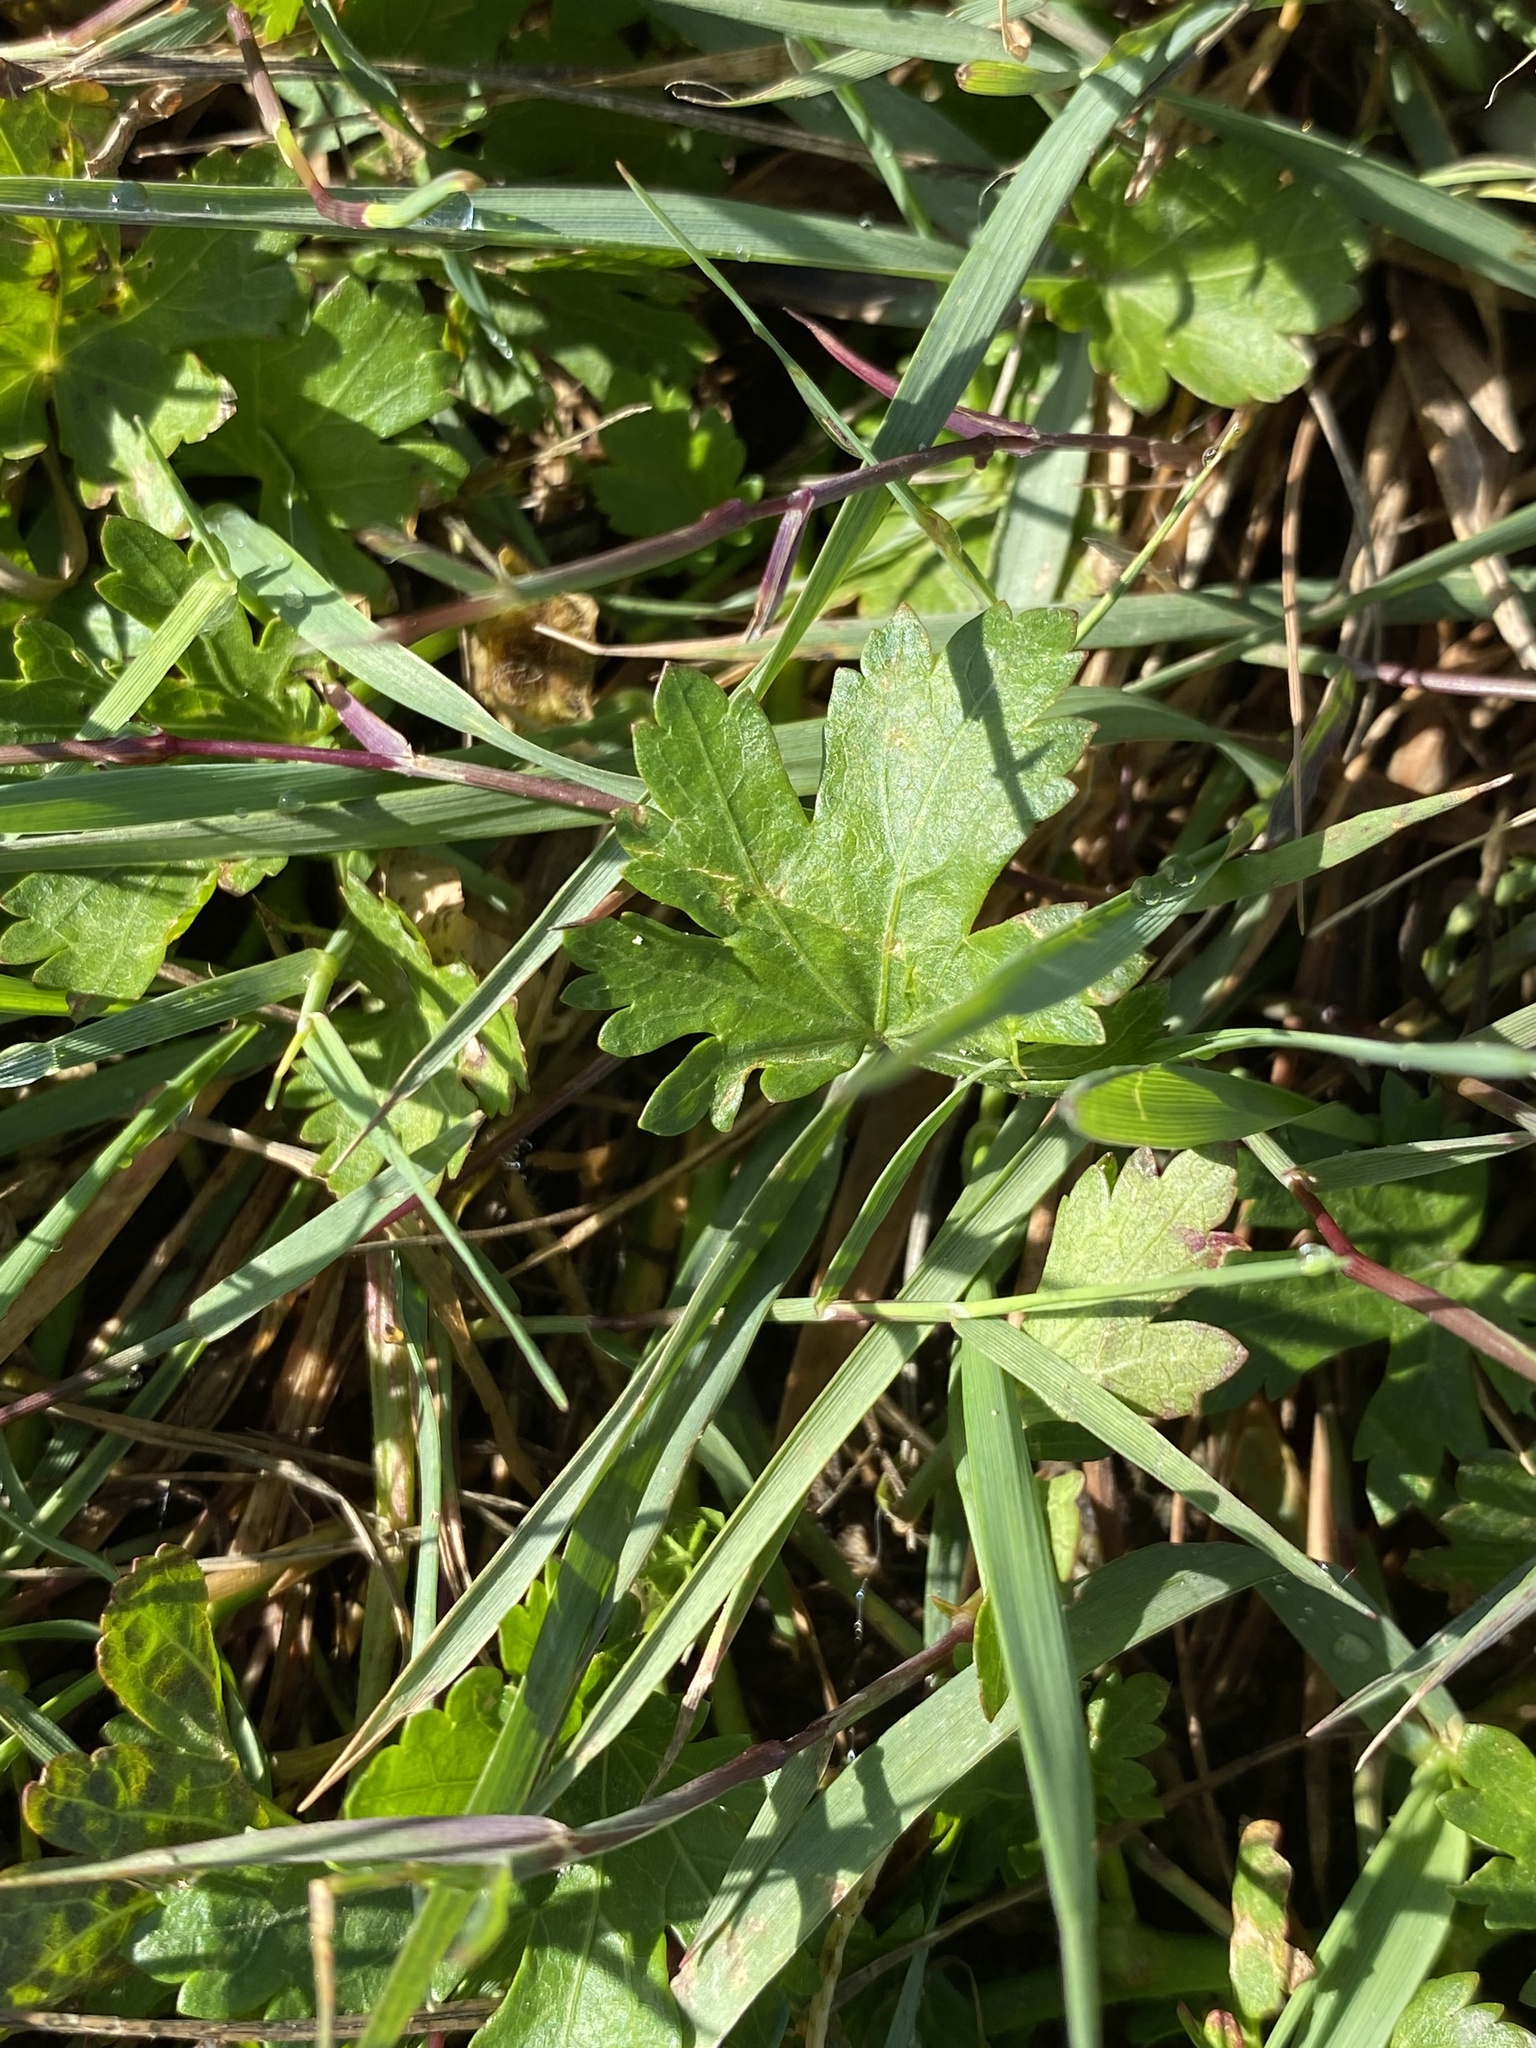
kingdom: Plantae
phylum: Tracheophyta
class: Magnoliopsida
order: Malvales
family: Malvaceae
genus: Modiola
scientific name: Modiola caroliniana
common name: Carolina bristlemallow
